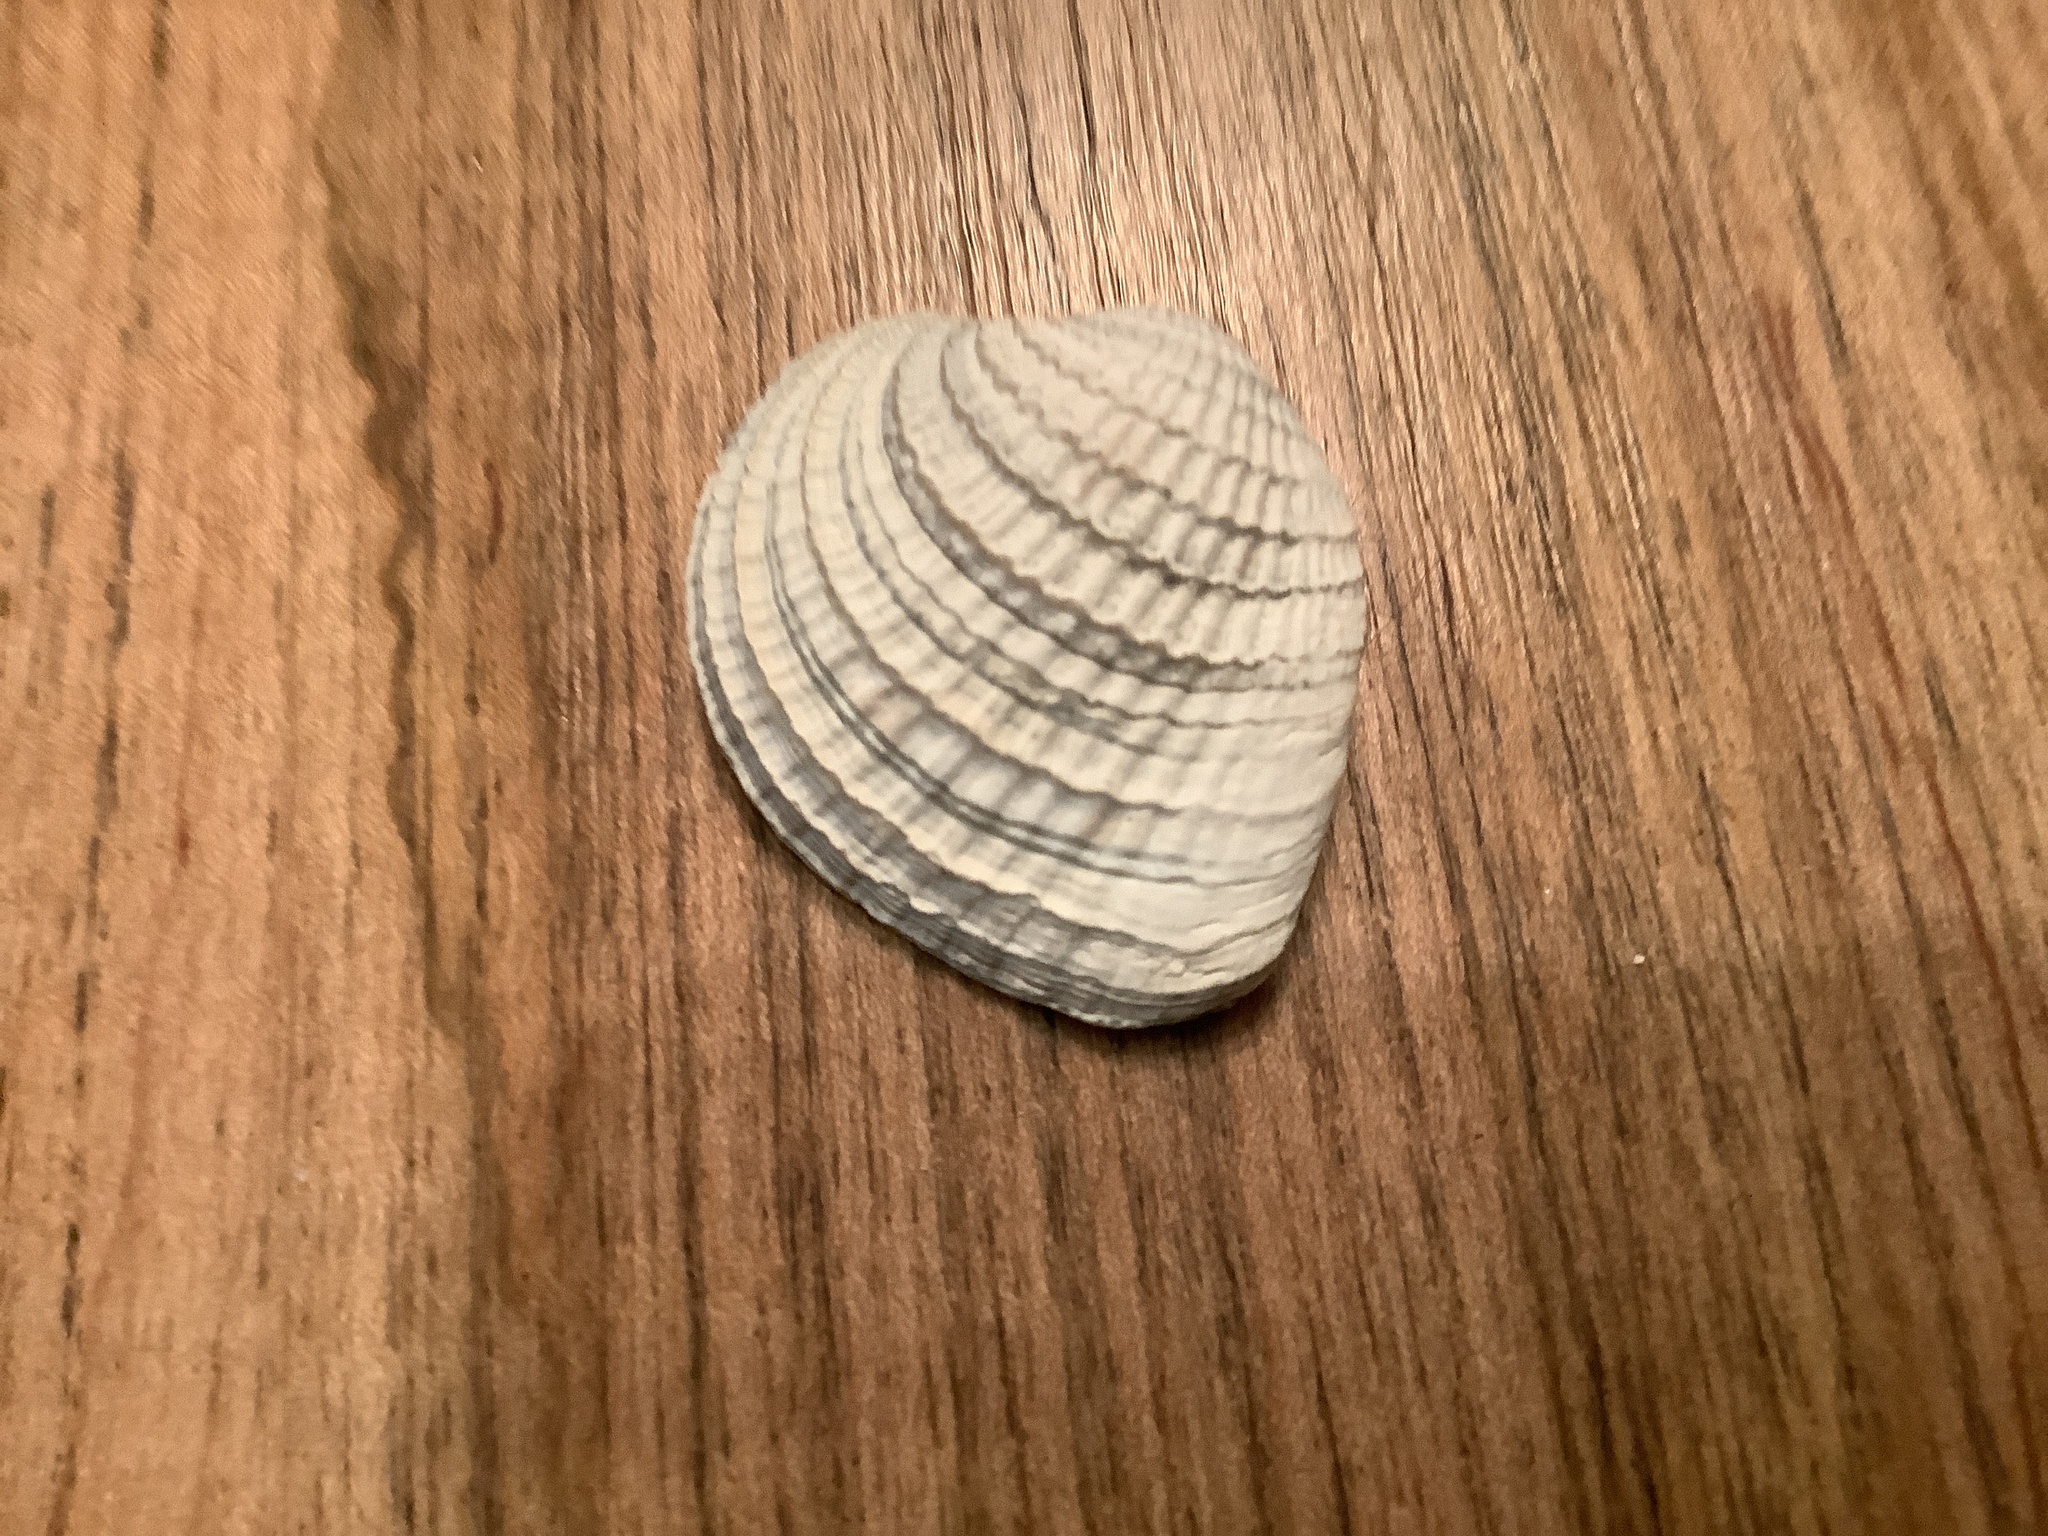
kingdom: Animalia
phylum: Mollusca
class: Bivalvia
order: Venerida
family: Veneridae
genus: Chione
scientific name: Chione elevata
